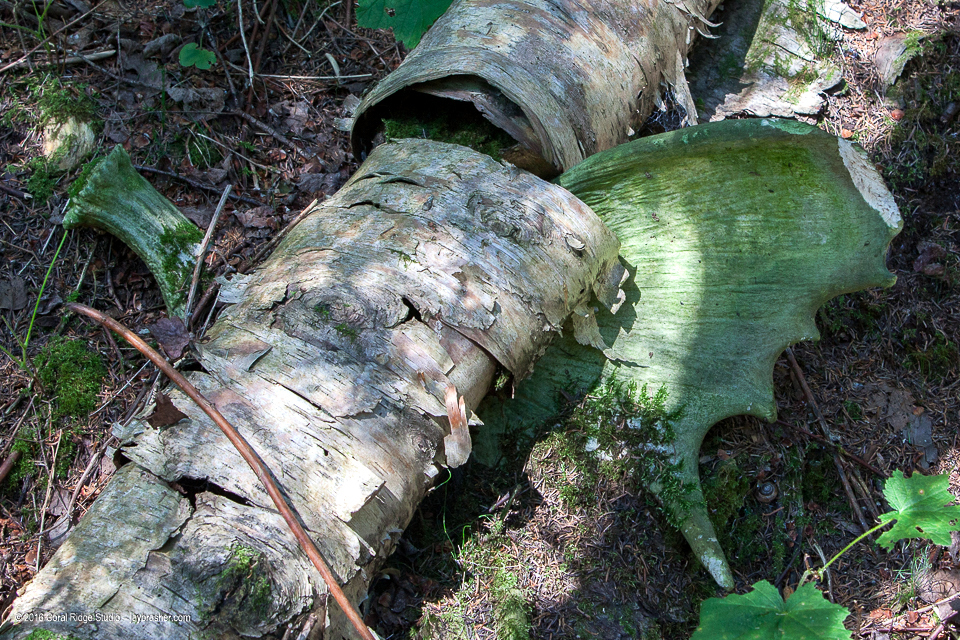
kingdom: Animalia
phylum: Chordata
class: Mammalia
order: Artiodactyla
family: Cervidae
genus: Alces
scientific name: Alces alces
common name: Moose
